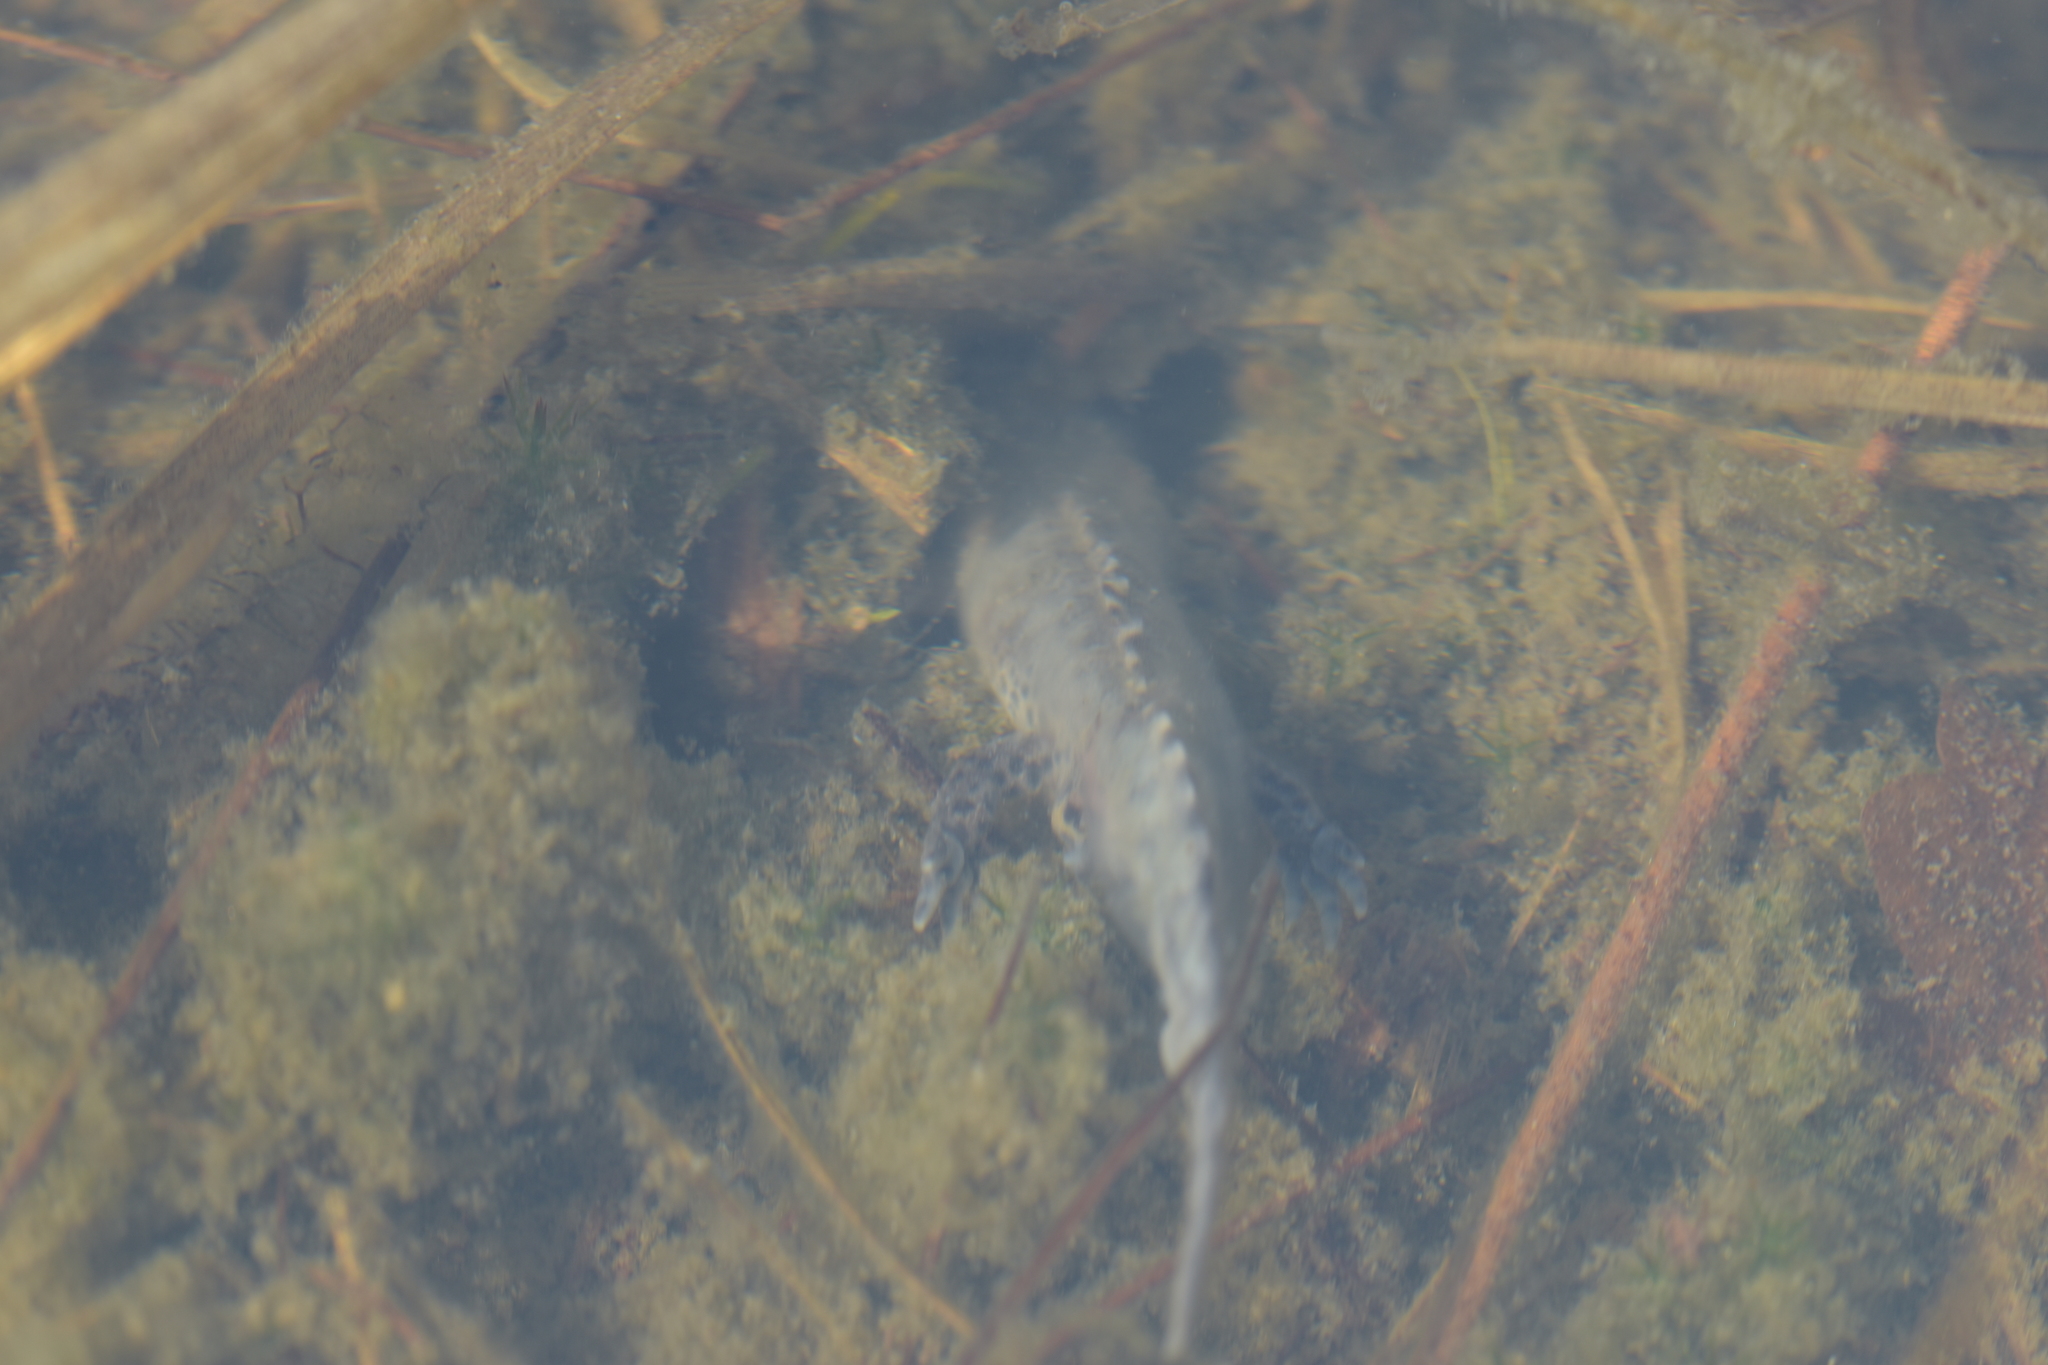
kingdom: Animalia
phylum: Chordata
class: Amphibia
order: Caudata
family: Salamandridae
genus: Ichthyosaura
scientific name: Ichthyosaura alpestris
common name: Alpine newt
